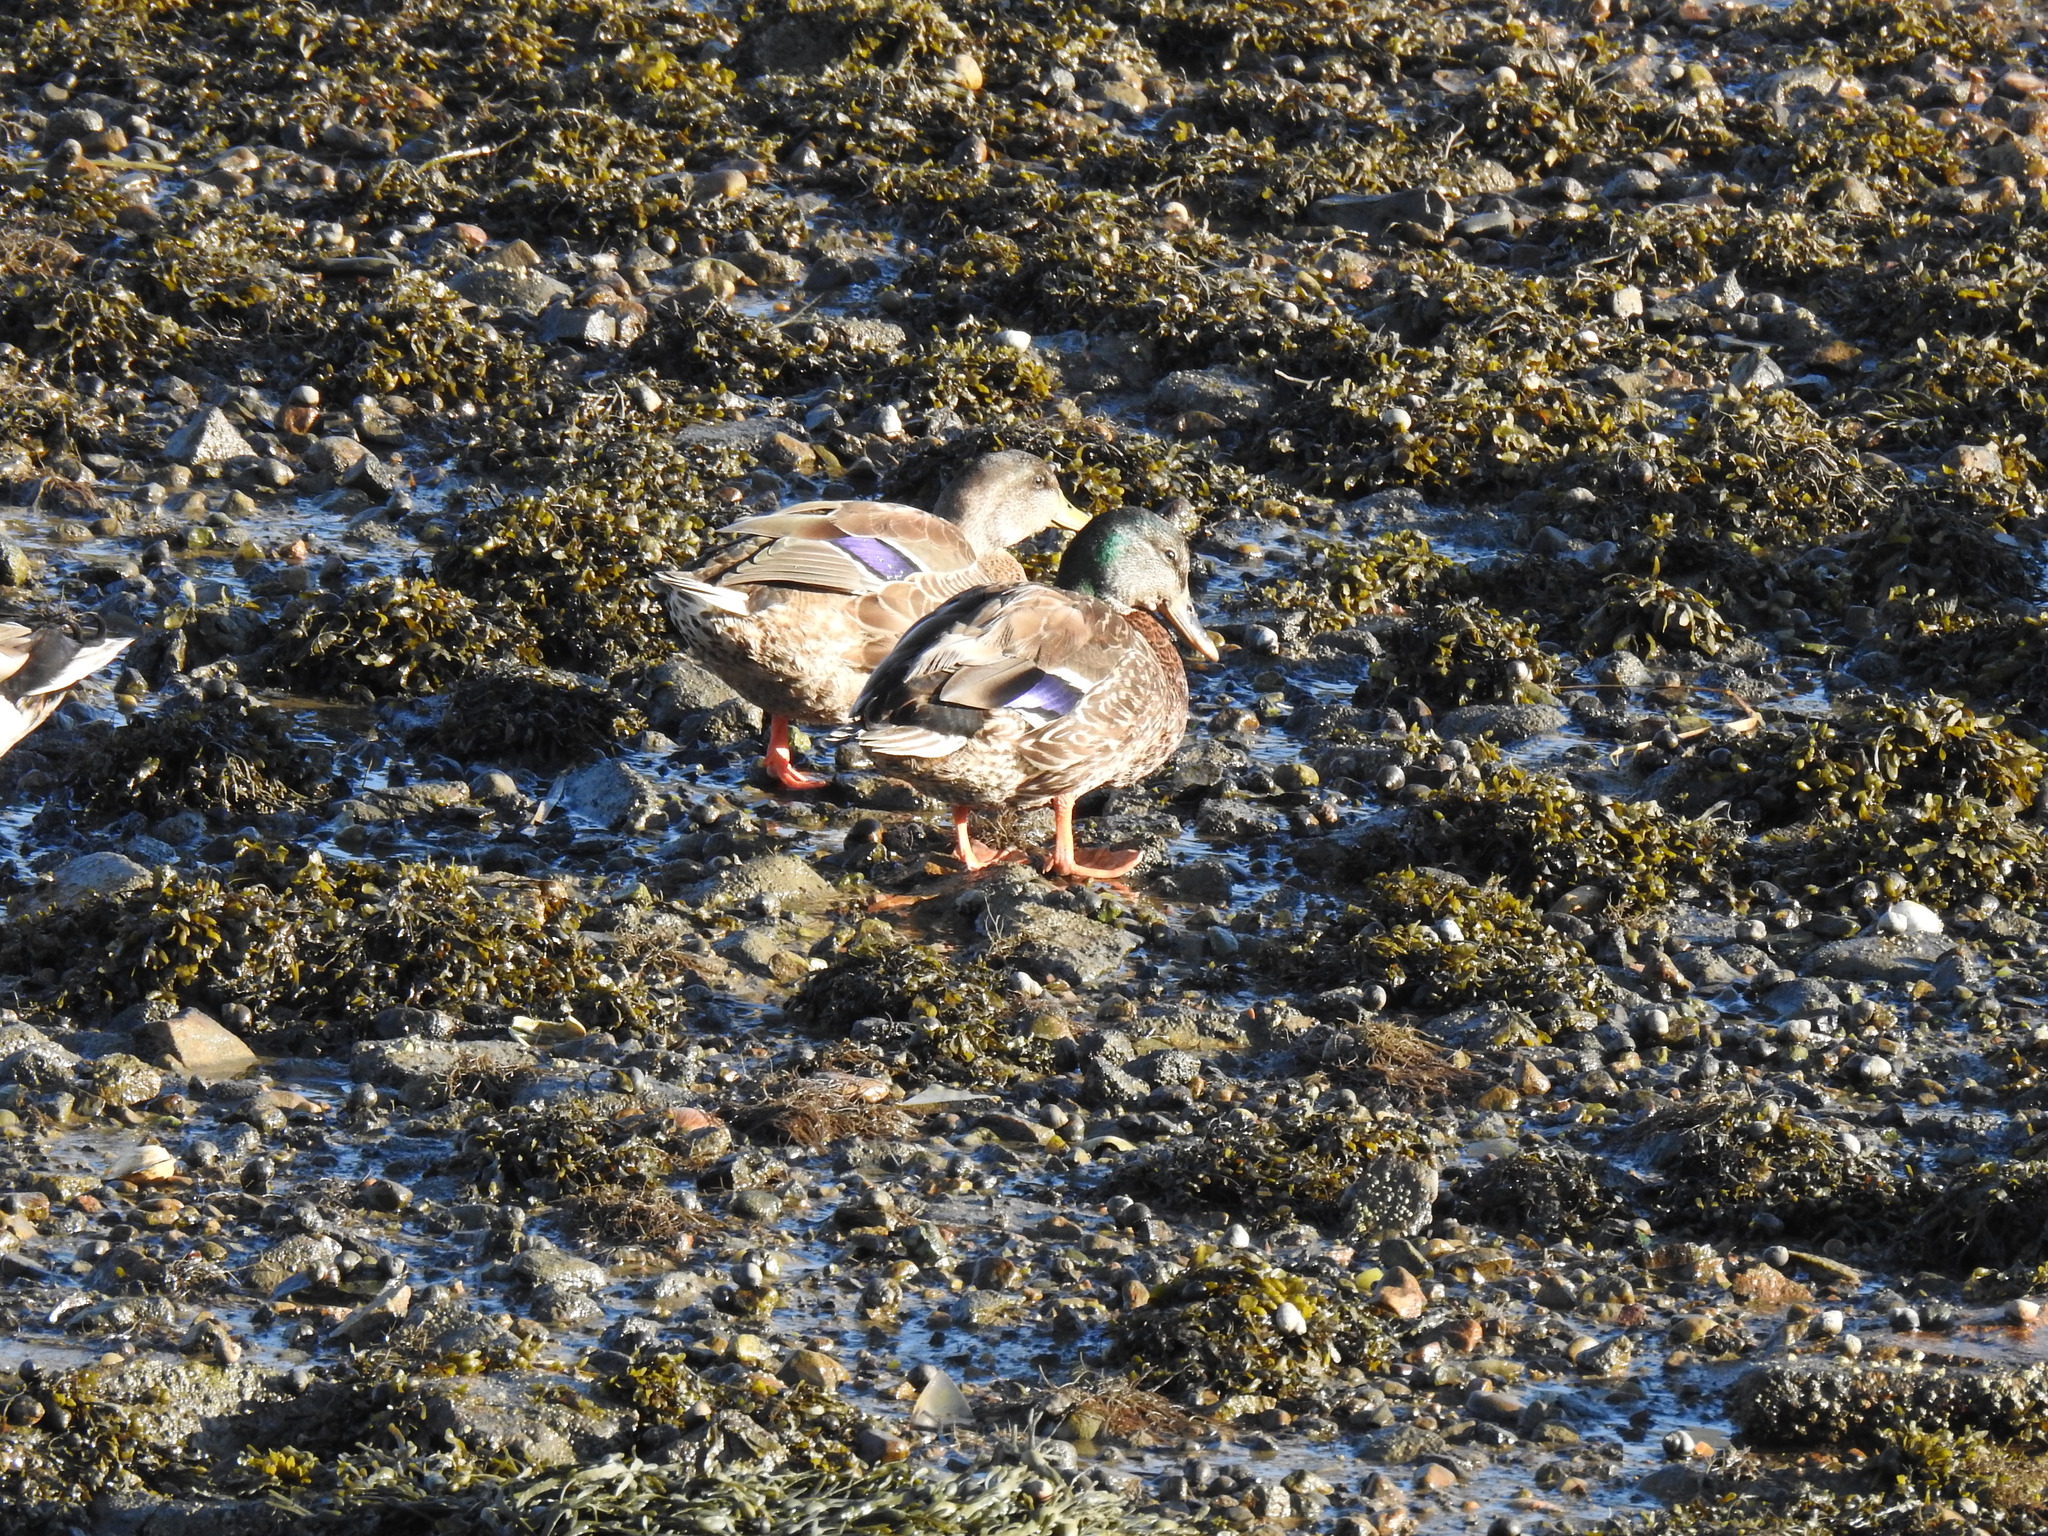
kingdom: Animalia
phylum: Chordata
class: Aves
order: Anseriformes
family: Anatidae
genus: Anas
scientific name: Anas platyrhynchos
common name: Mallard
